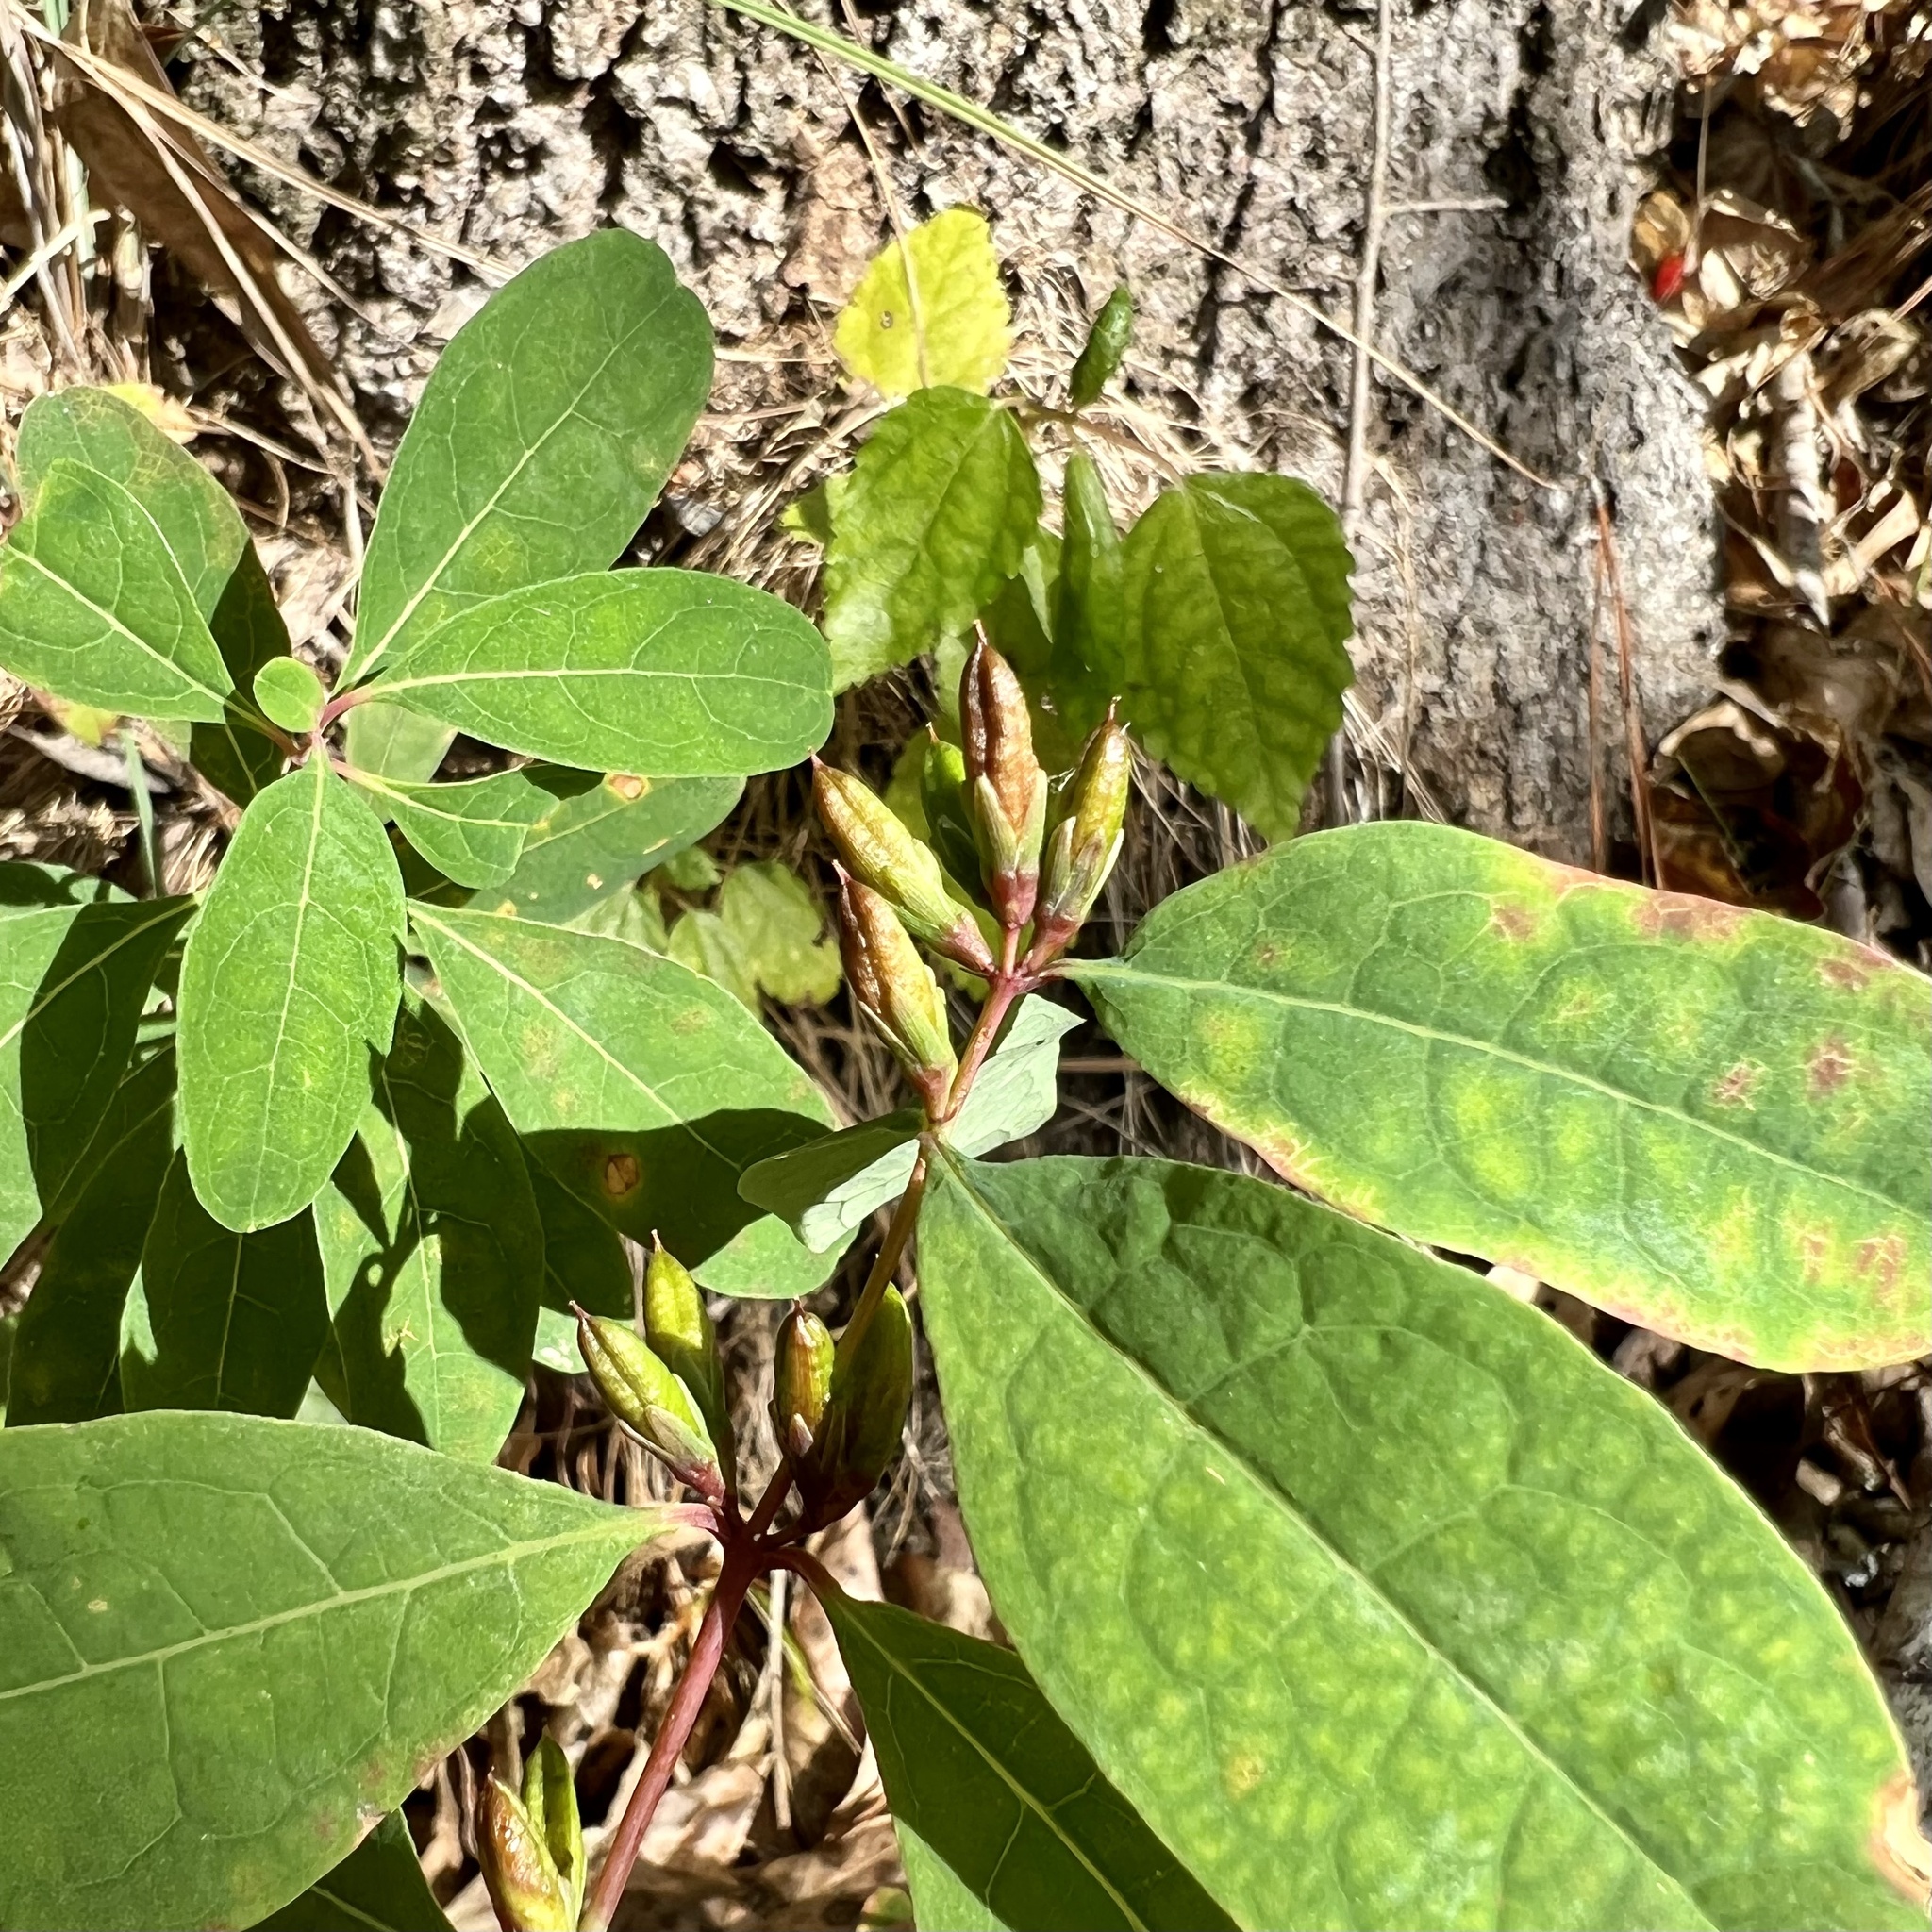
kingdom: Plantae
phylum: Tracheophyta
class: Magnoliopsida
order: Malpighiales
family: Hypericaceae
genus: Triadenum
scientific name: Triadenum walteri
